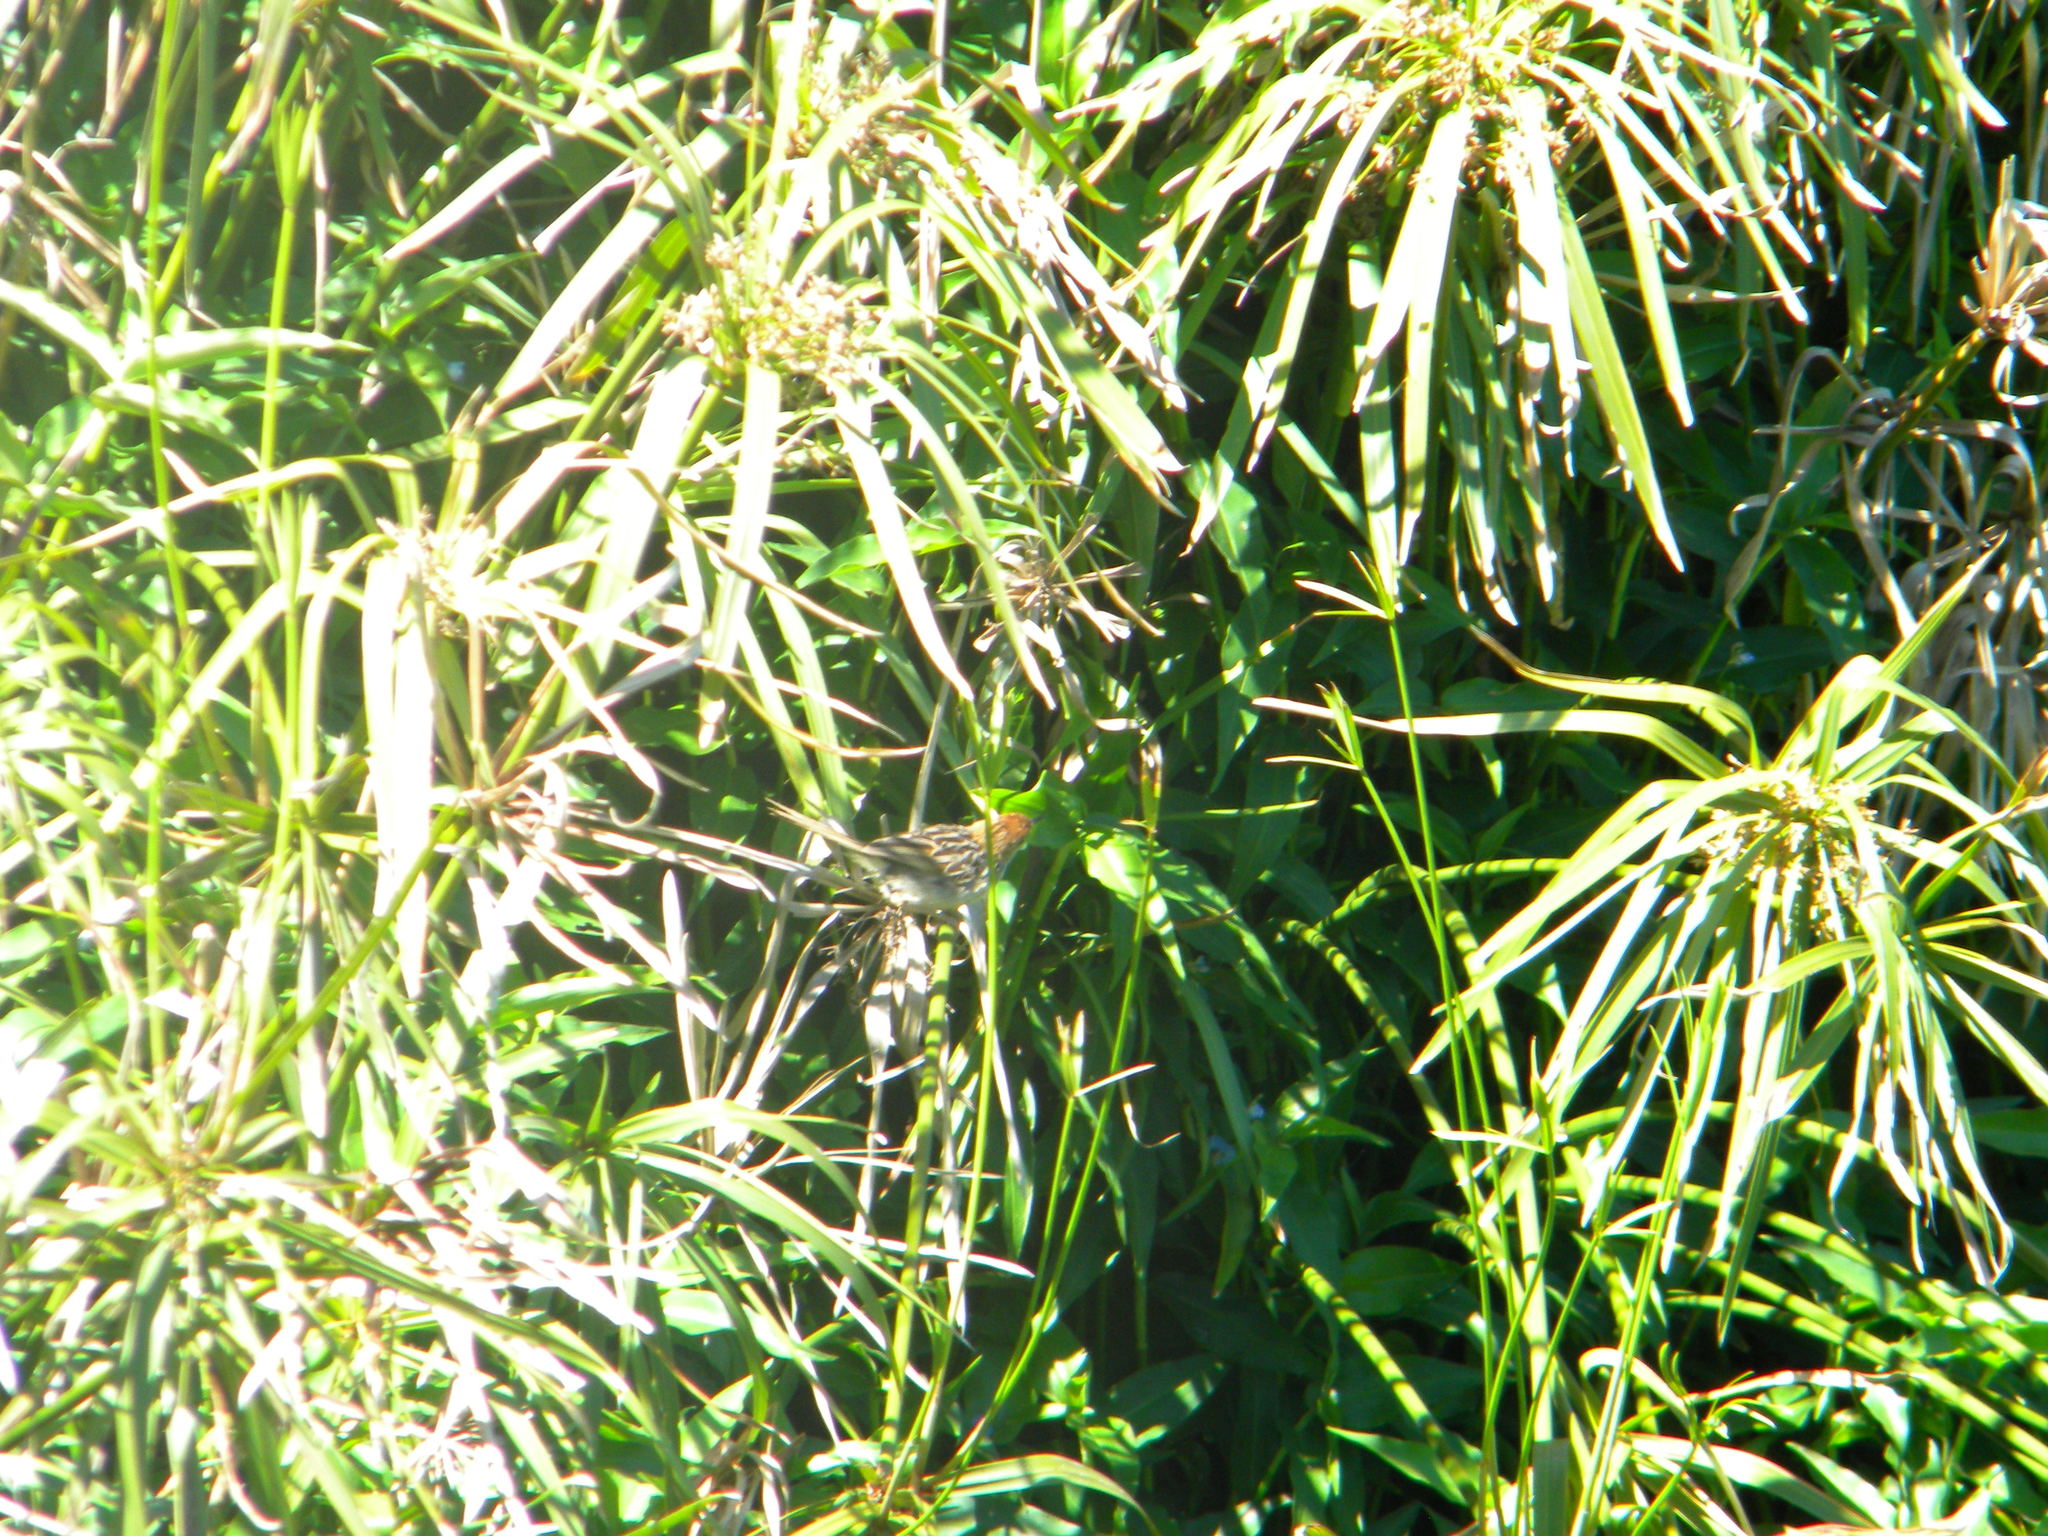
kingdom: Animalia
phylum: Chordata
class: Aves
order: Passeriformes
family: Cisticolidae
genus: Cisticola
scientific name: Cisticola tinniens
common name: Levaillant's cisticola
